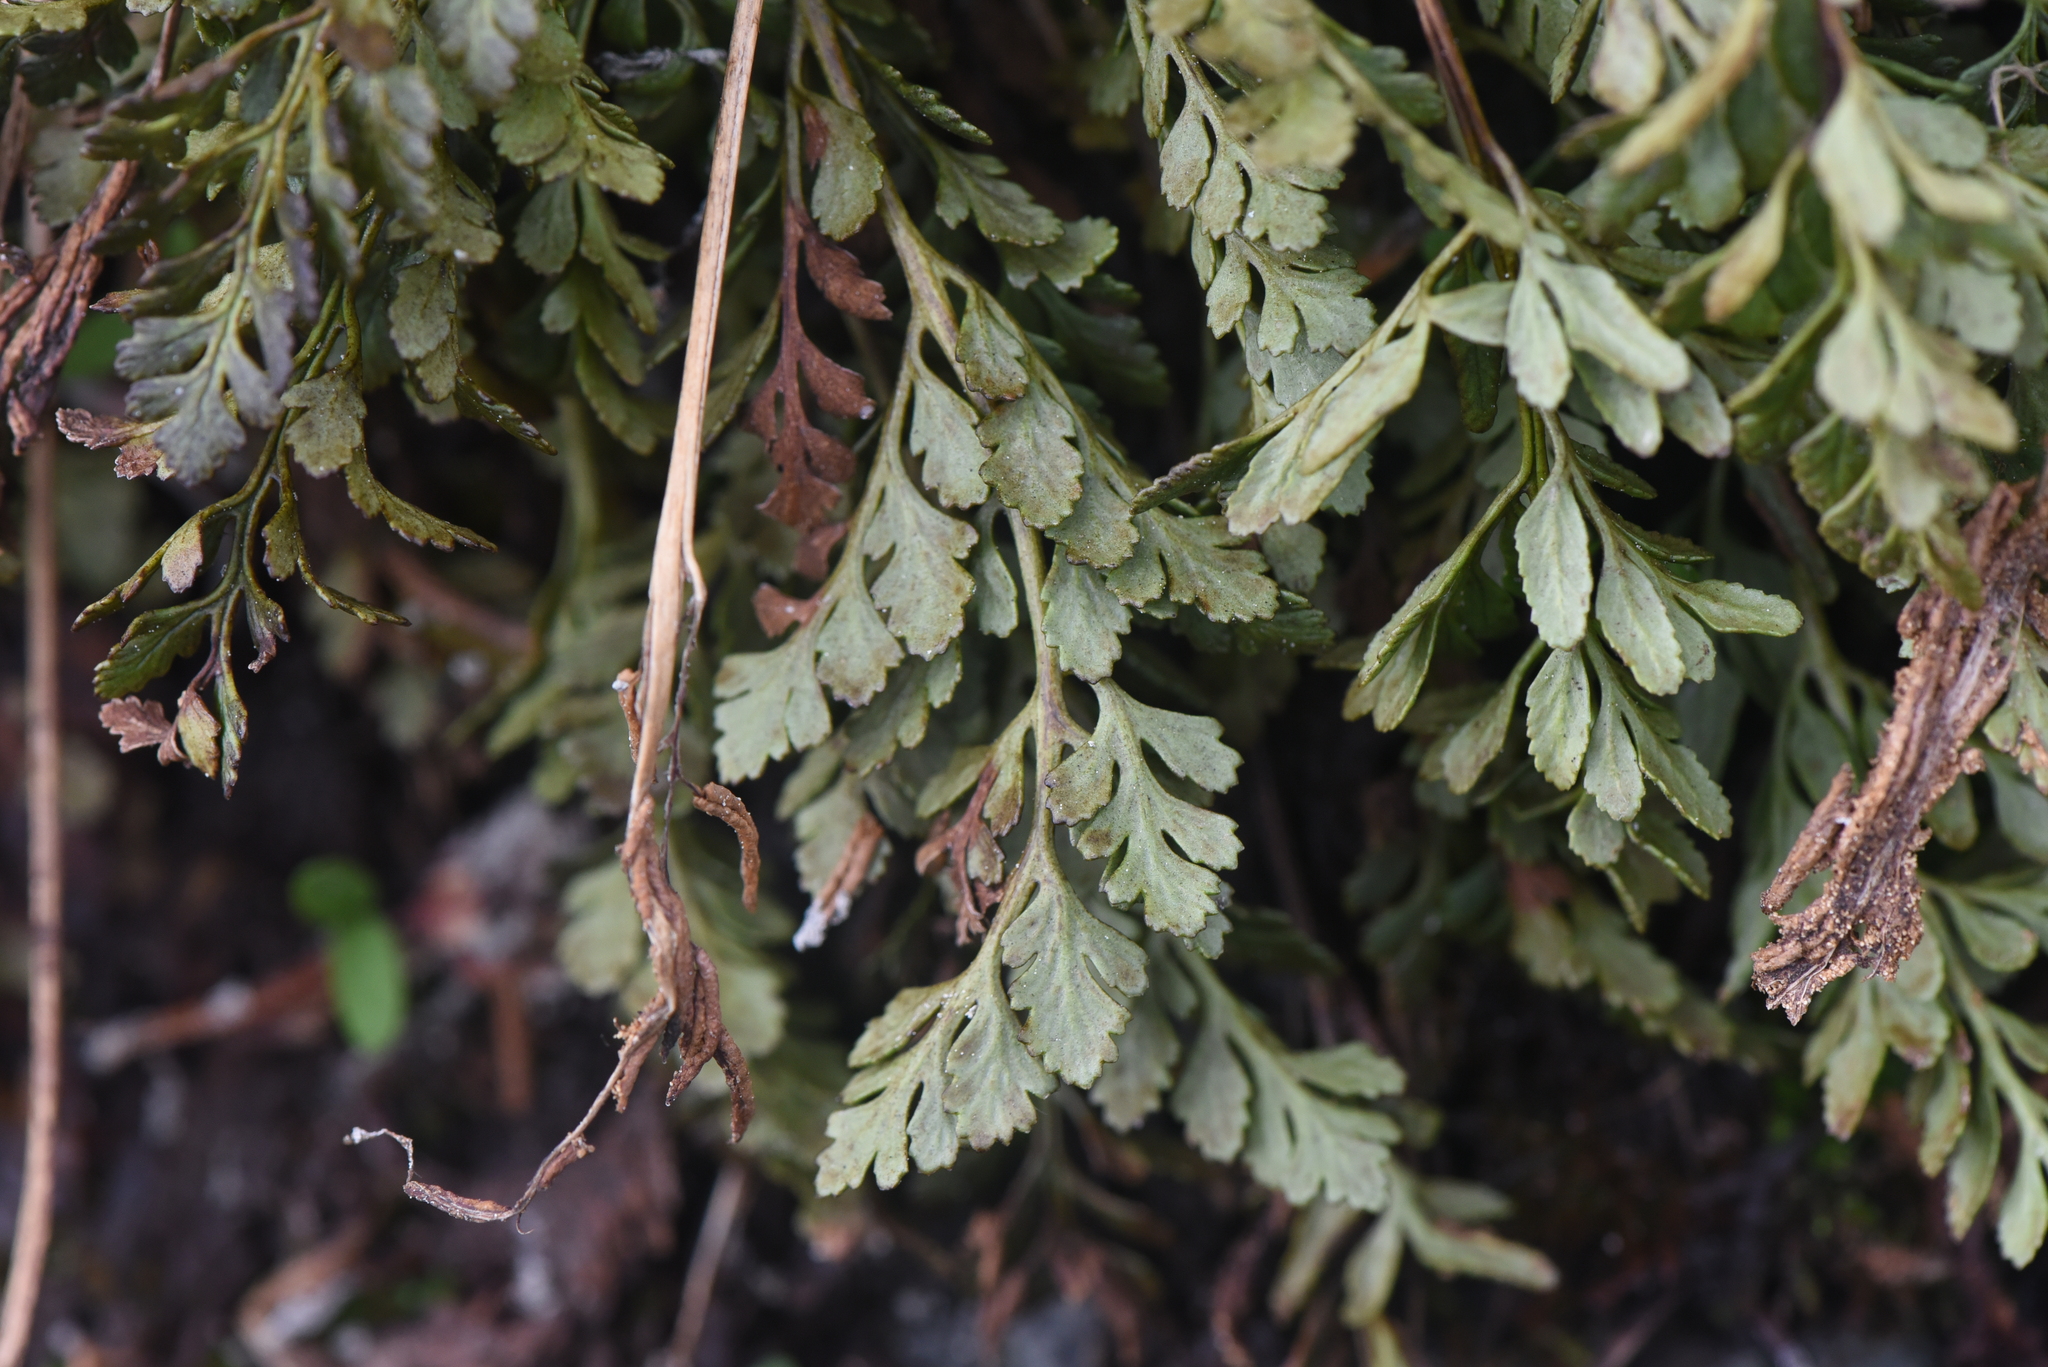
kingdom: Plantae
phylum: Tracheophyta
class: Polypodiopsida
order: Polypodiales
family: Pteridaceae
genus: Cryptogramma
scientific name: Cryptogramma acrostichoides
